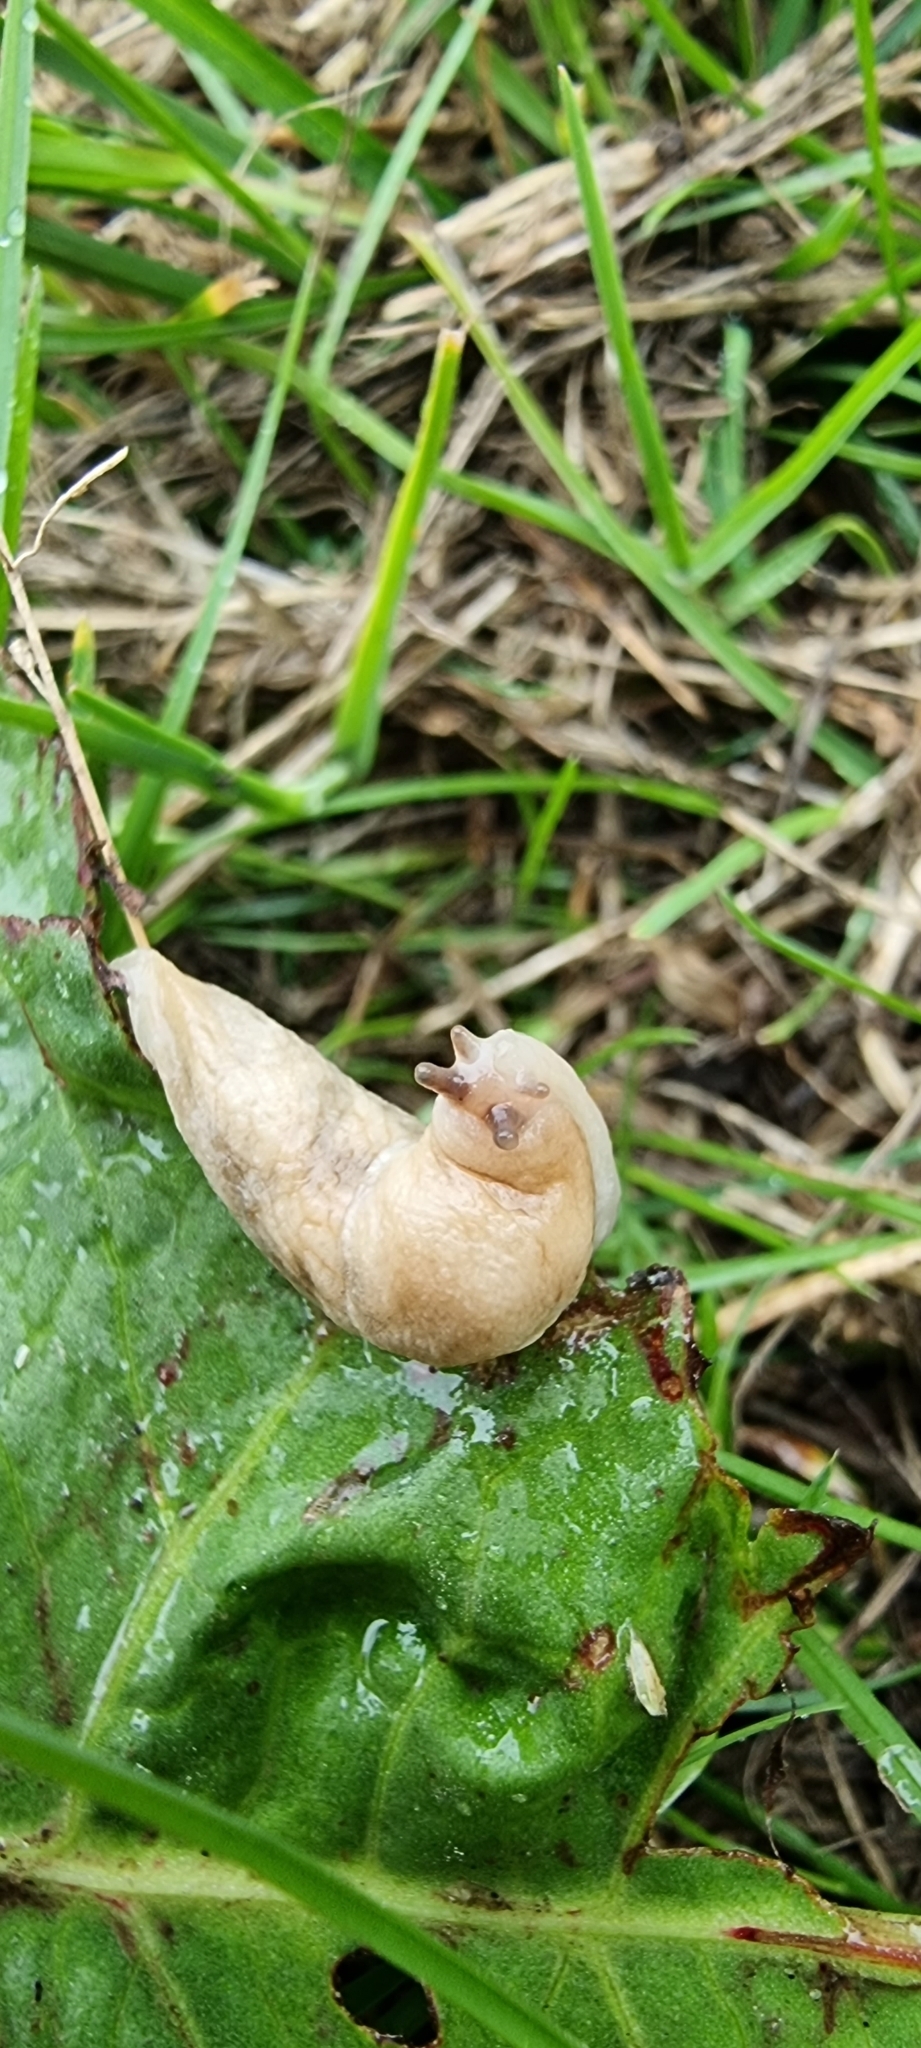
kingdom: Animalia
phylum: Mollusca
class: Gastropoda
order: Stylommatophora
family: Agriolimacidae
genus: Deroceras
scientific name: Deroceras reticulatum
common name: Gray field slug
